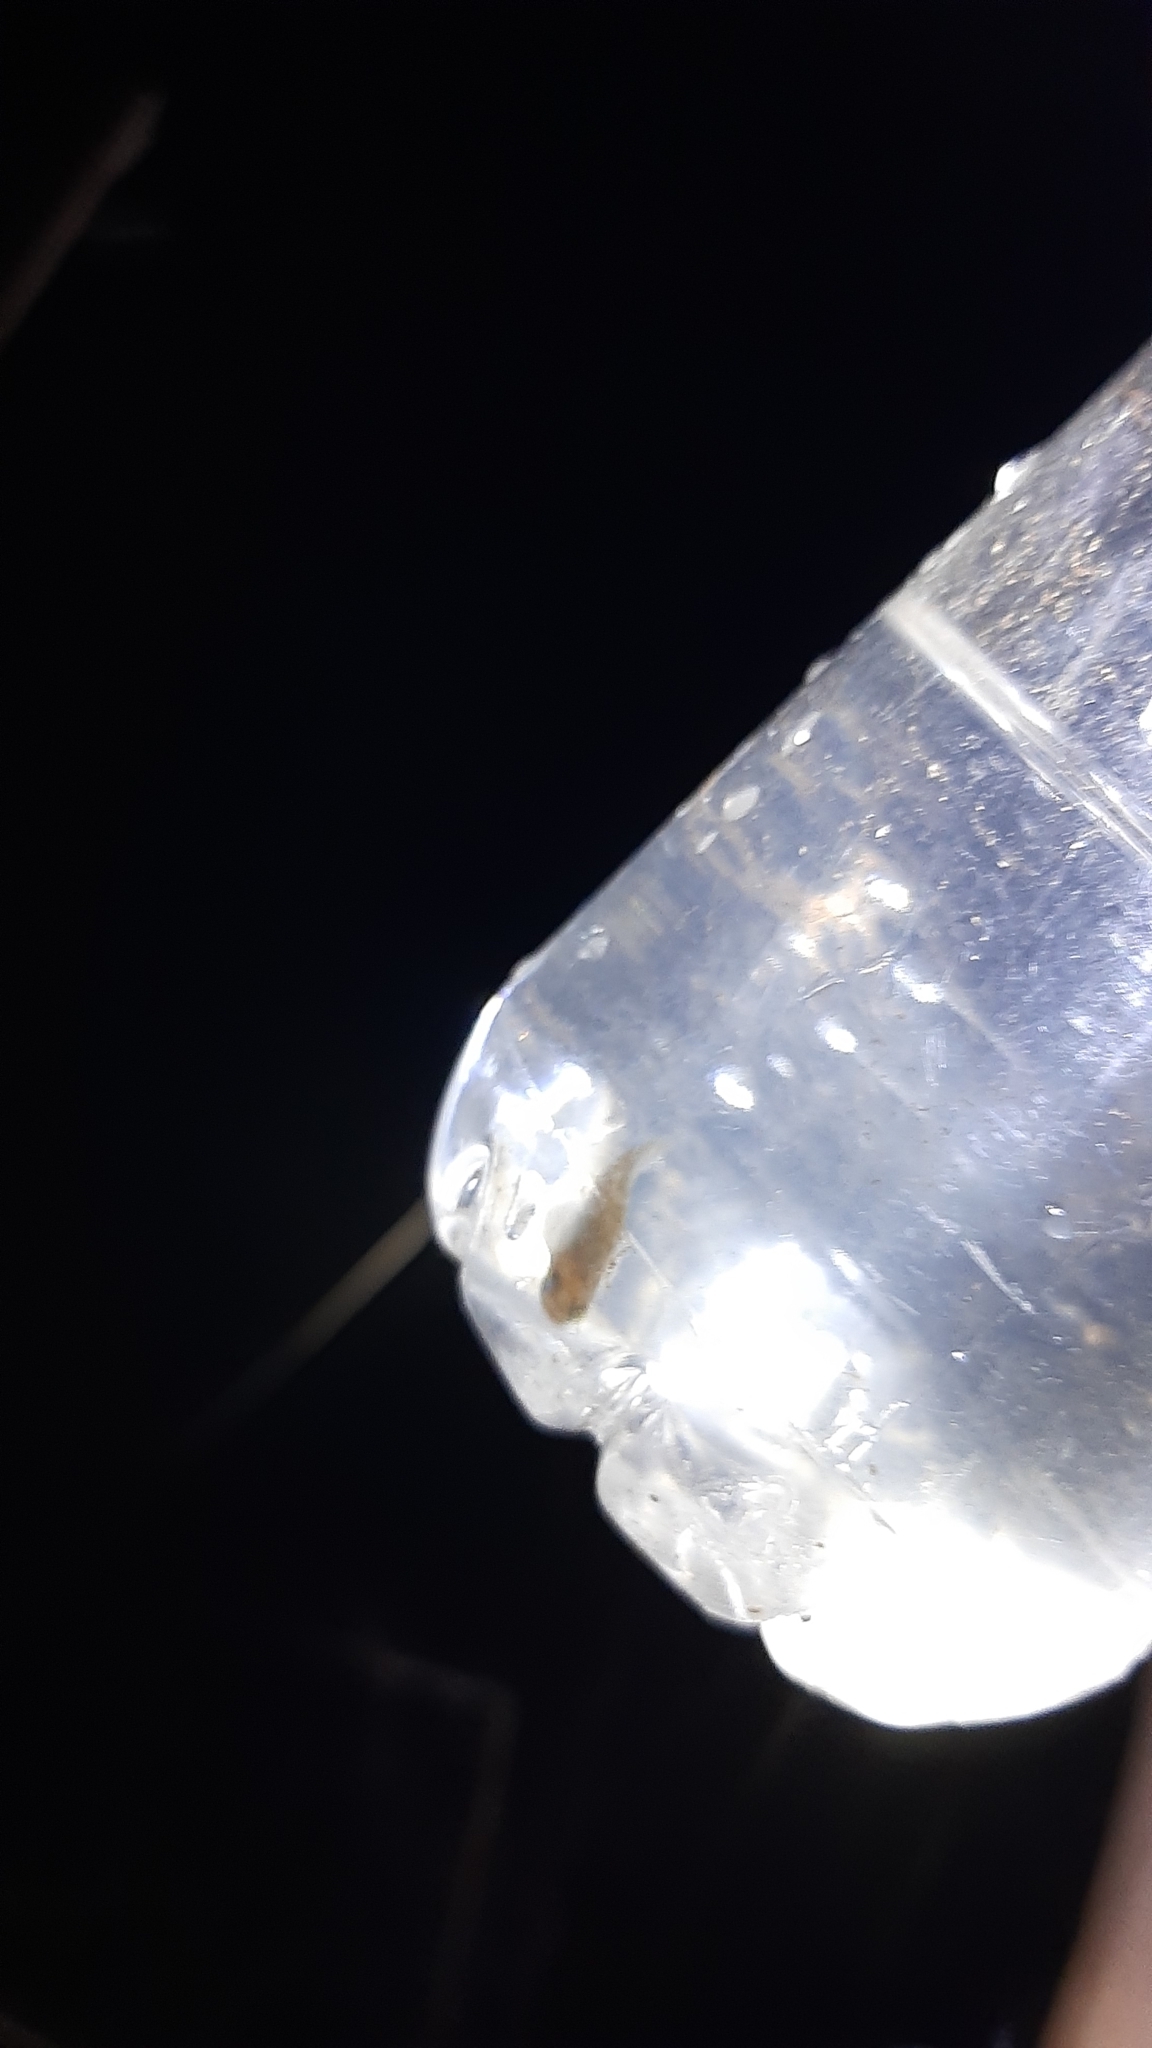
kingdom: Animalia
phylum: Chordata
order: Cyprinodontiformes
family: Poeciliidae
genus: Gambusia
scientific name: Gambusia holbrooki
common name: Eastern mosquitofish
